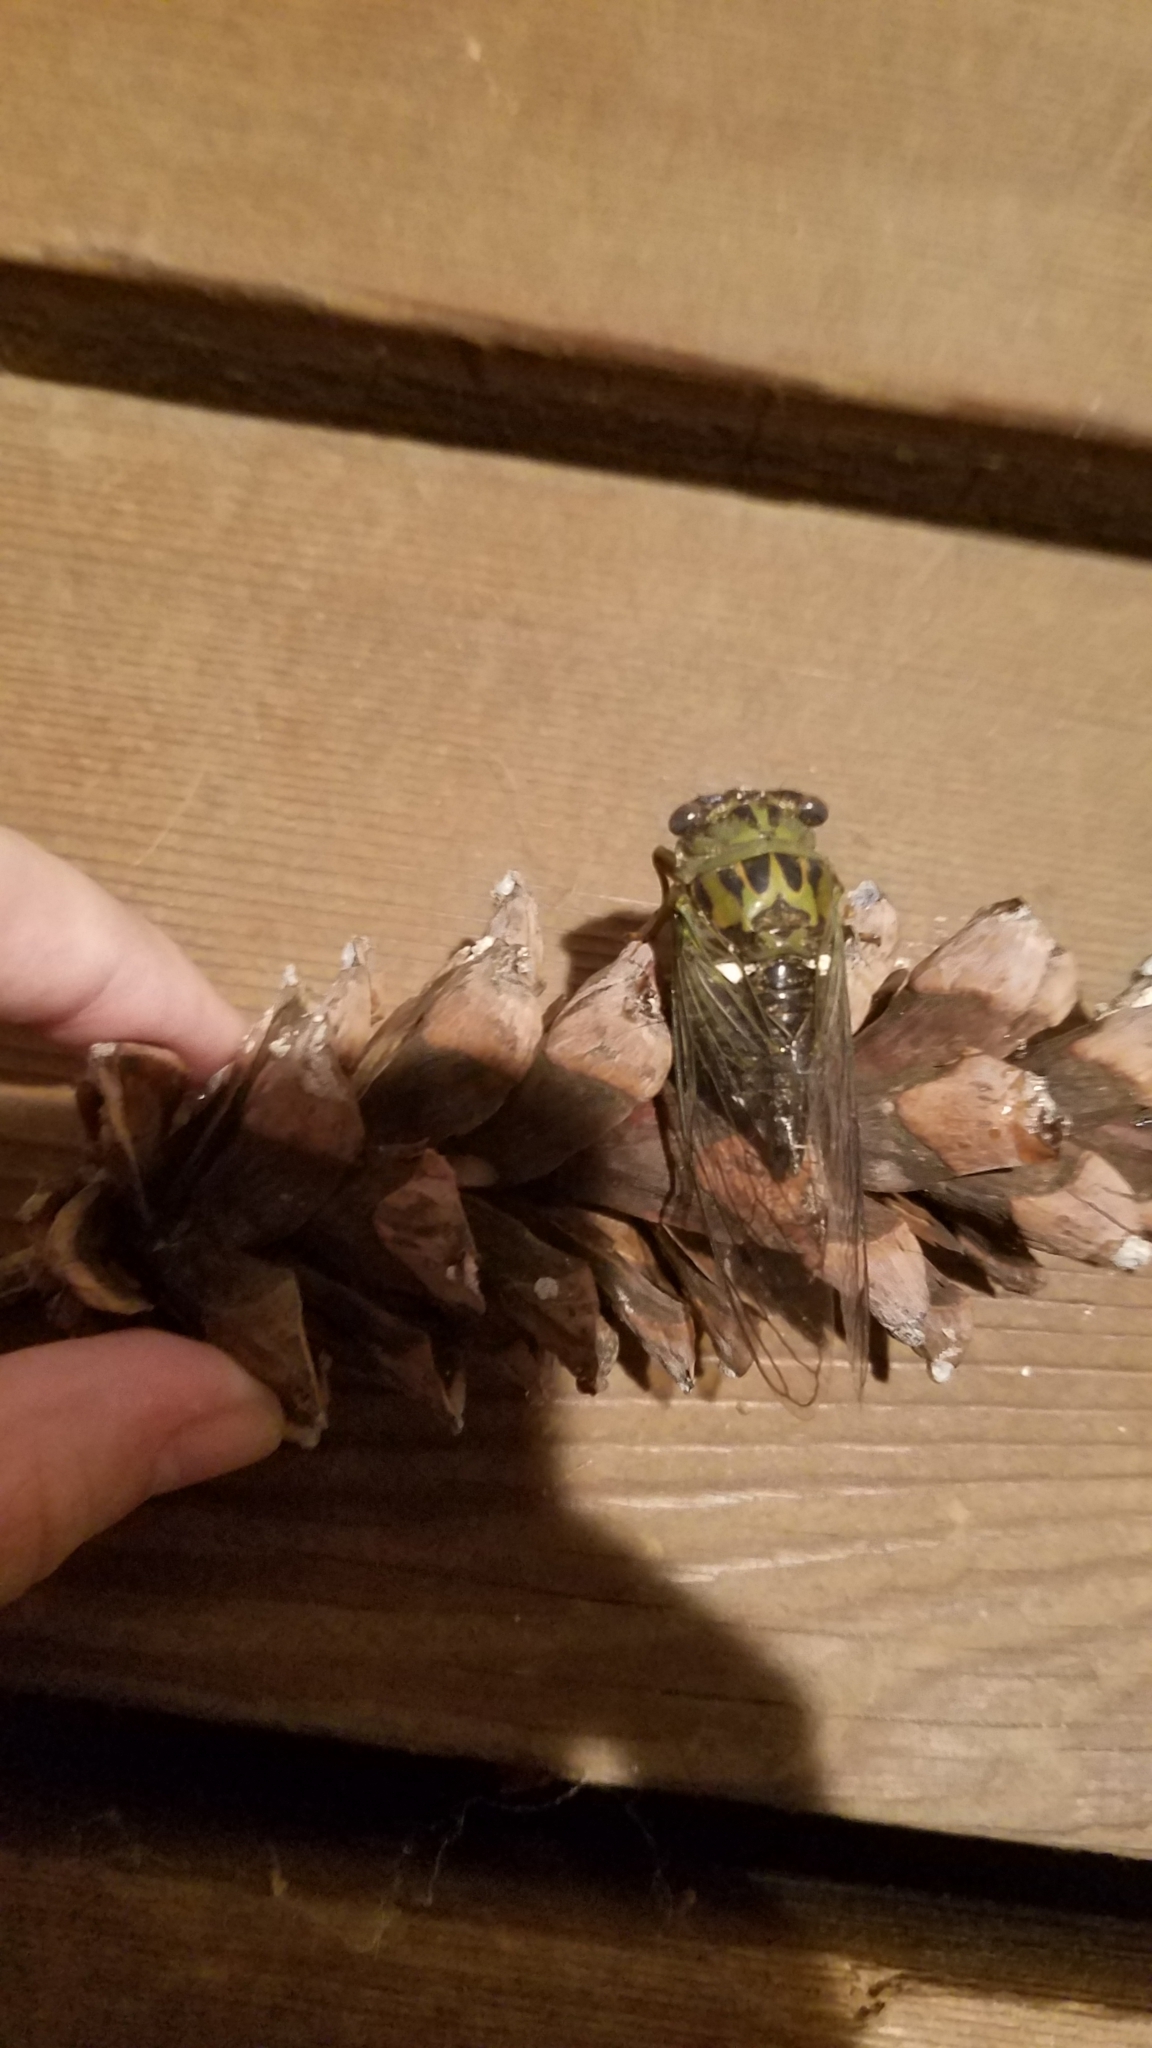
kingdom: Animalia
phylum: Arthropoda
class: Insecta
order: Hemiptera
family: Cicadidae
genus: Neotibicen
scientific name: Neotibicen pruinosus
